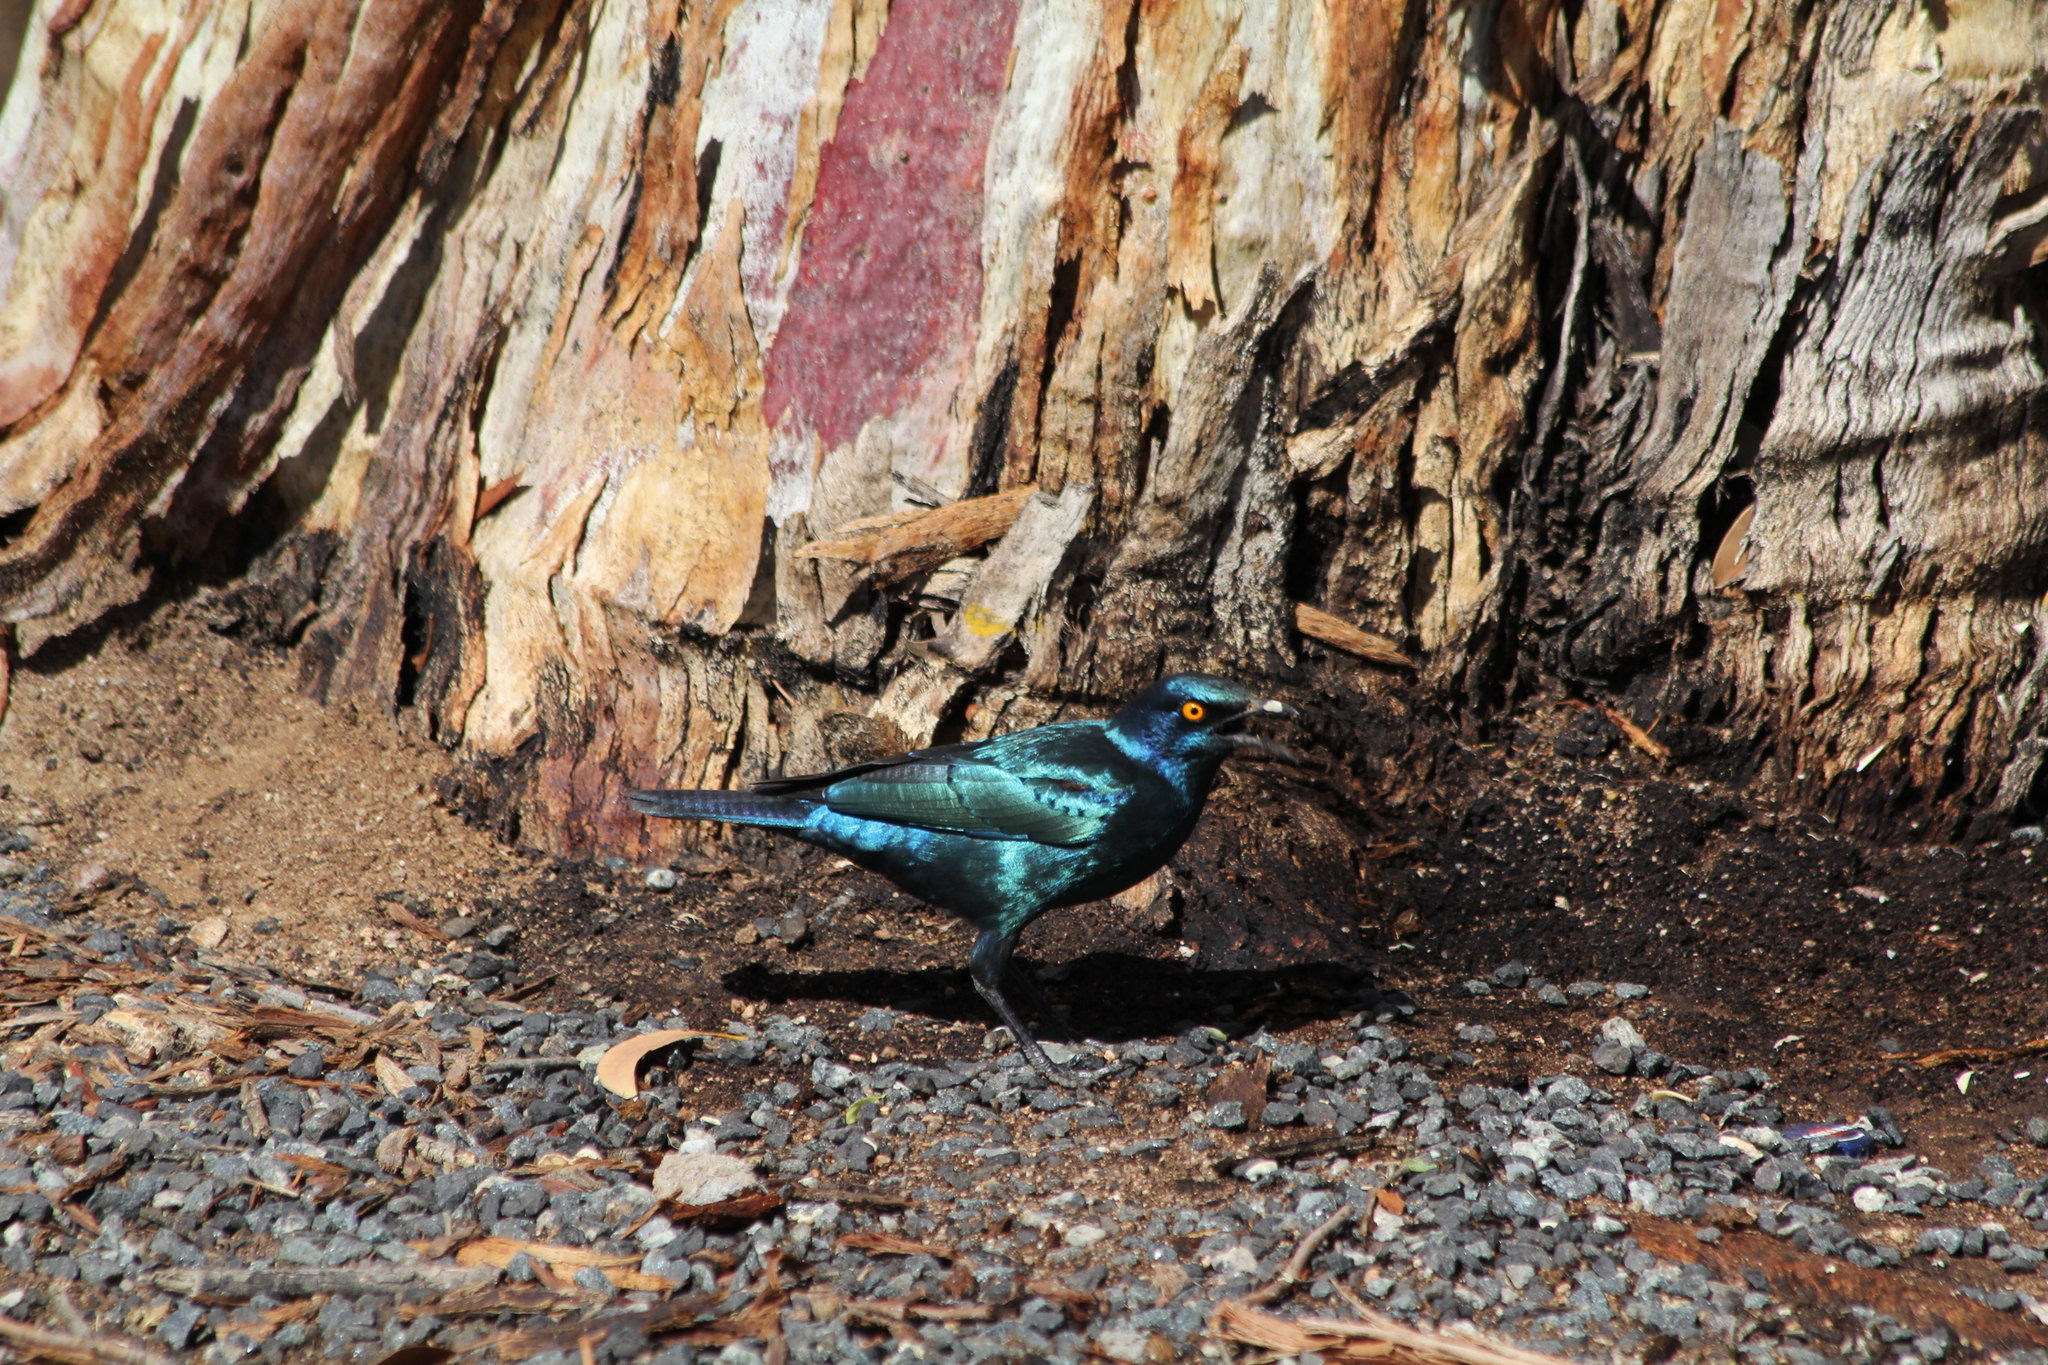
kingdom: Animalia
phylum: Chordata
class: Aves
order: Passeriformes
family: Sturnidae
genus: Lamprotornis
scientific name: Lamprotornis nitens
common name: Cape starling
